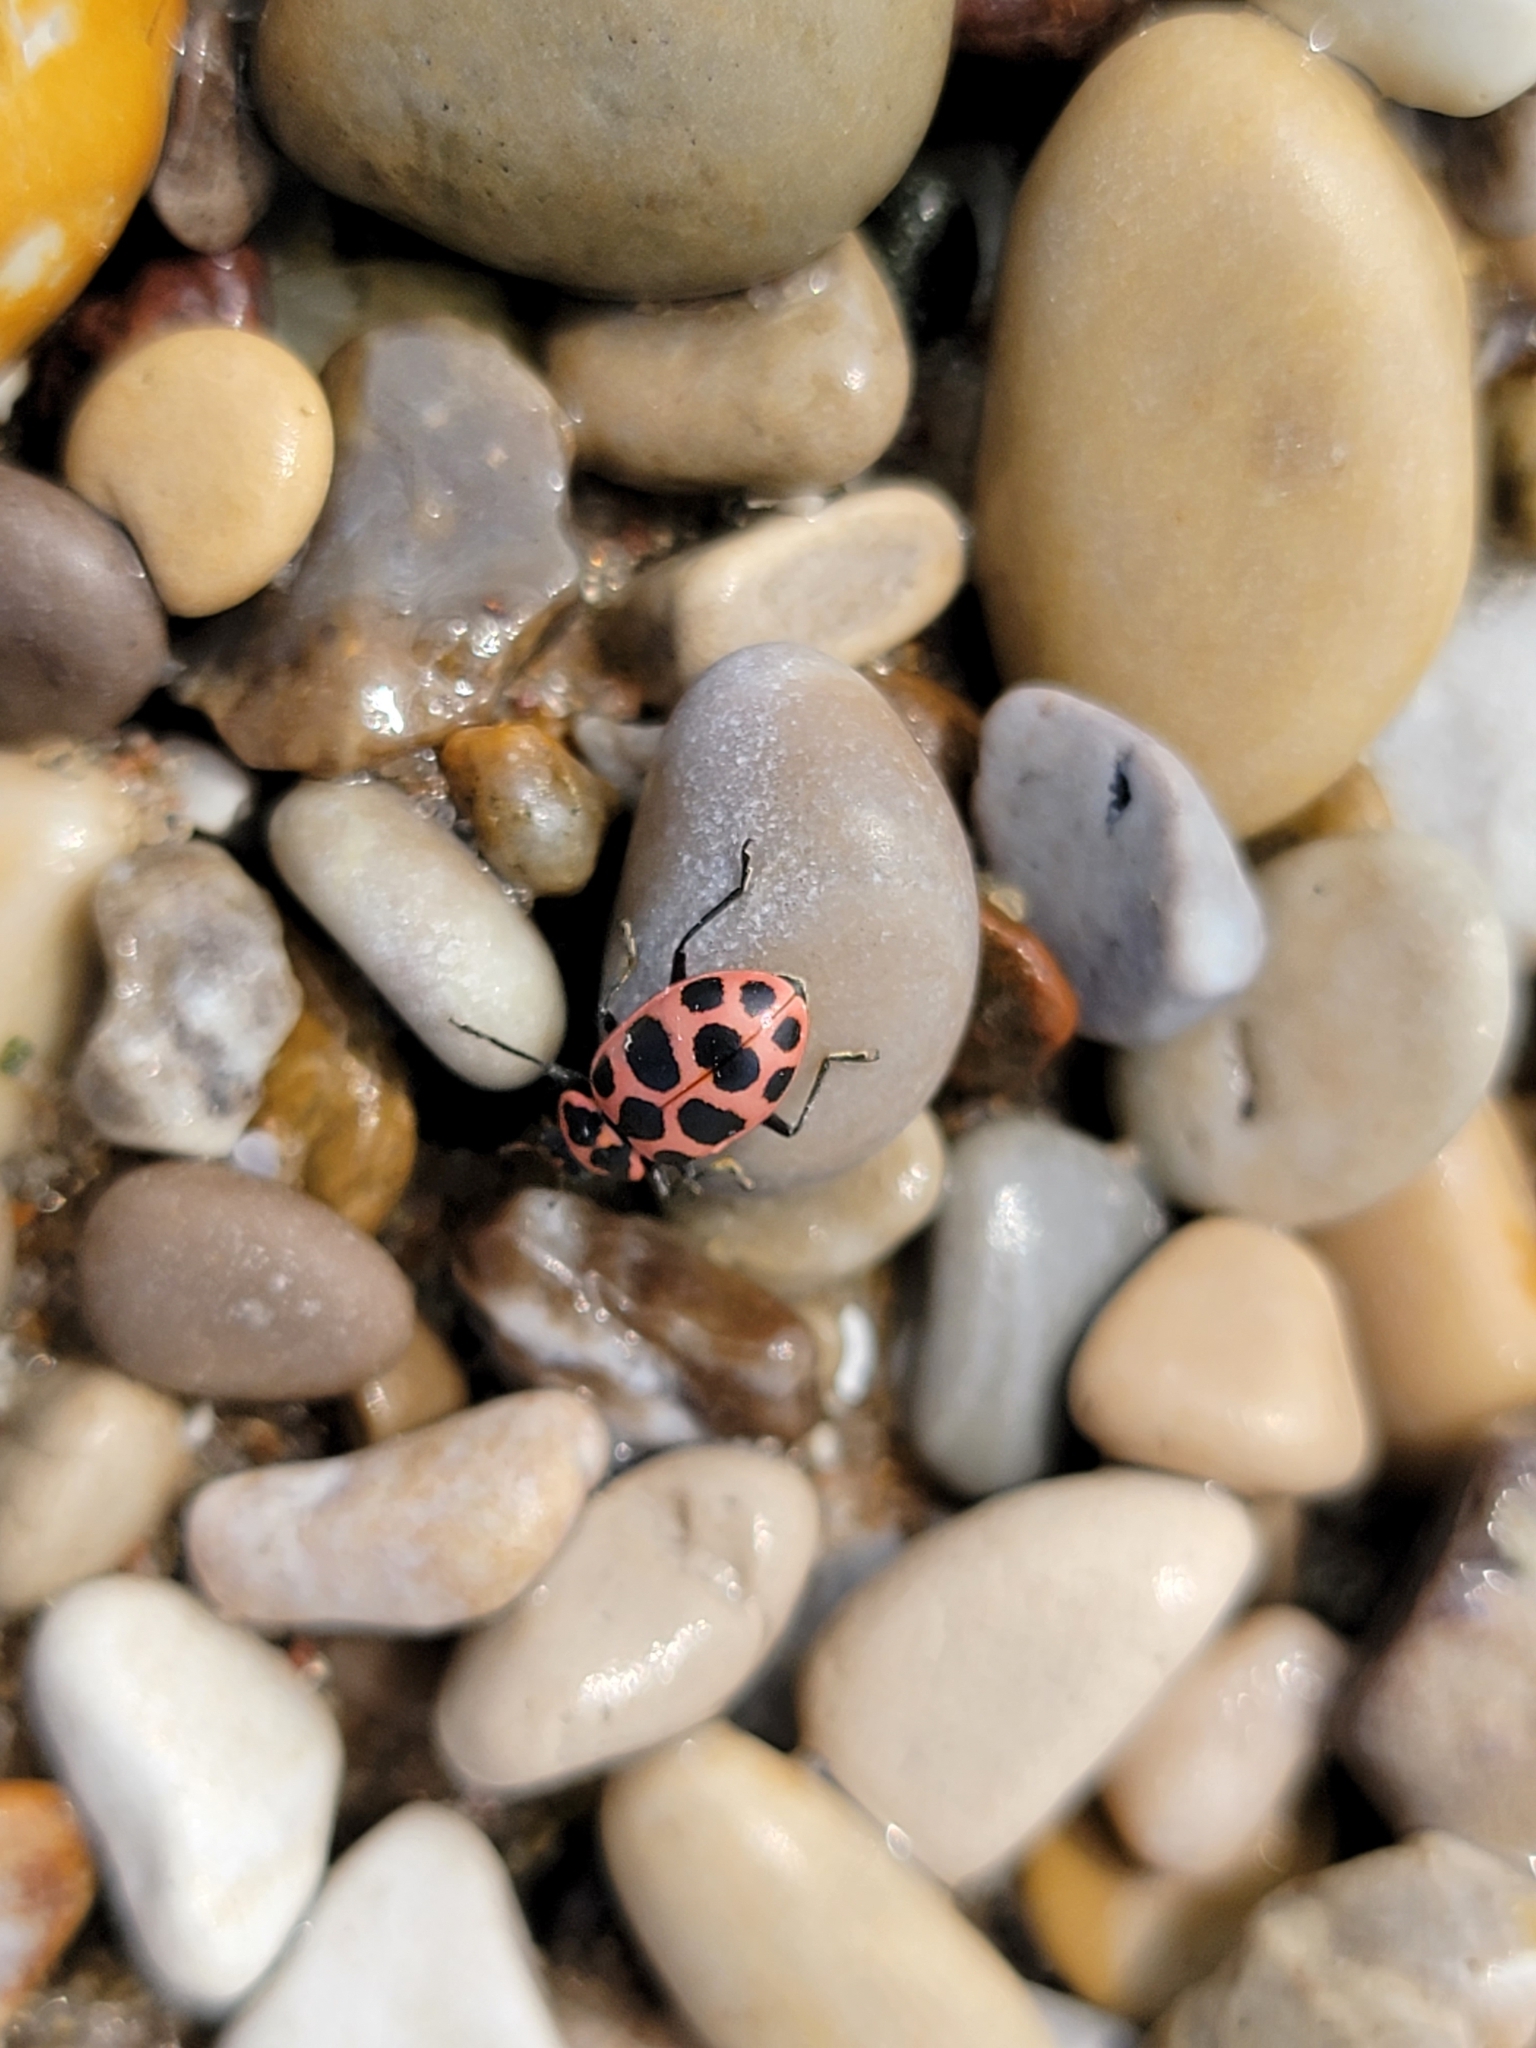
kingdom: Animalia
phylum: Arthropoda
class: Insecta
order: Coleoptera
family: Coccinellidae
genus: Coleomegilla
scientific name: Coleomegilla maculata
